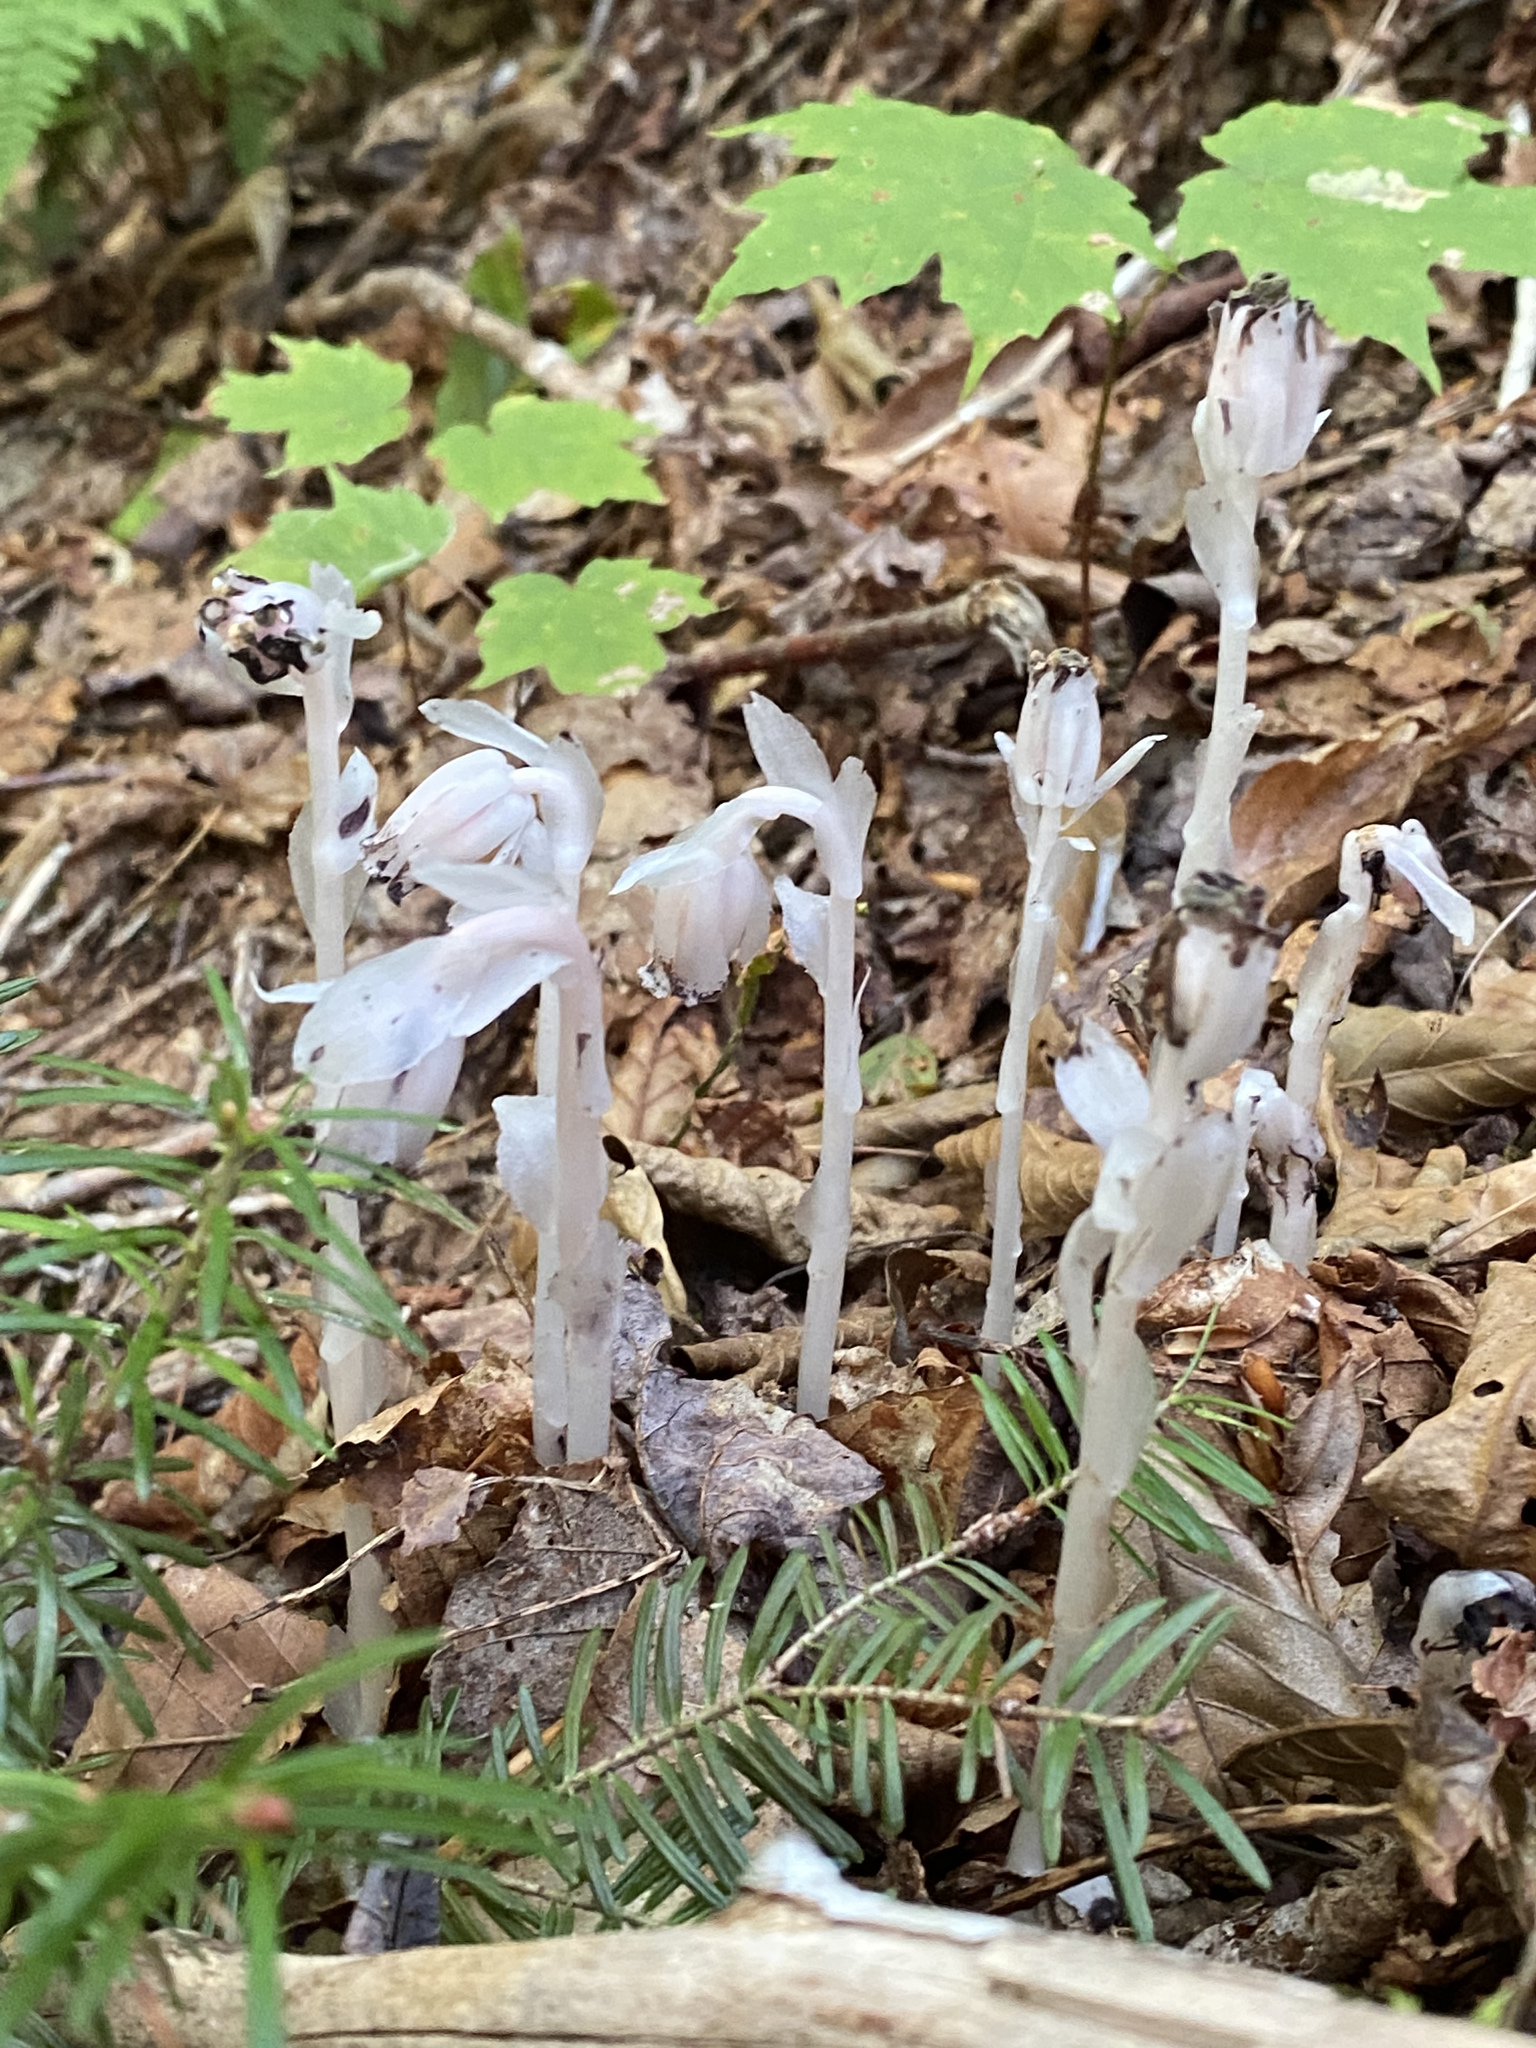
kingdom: Plantae
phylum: Tracheophyta
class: Magnoliopsida
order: Ericales
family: Ericaceae
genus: Monotropa
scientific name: Monotropa uniflora
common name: Convulsion root
